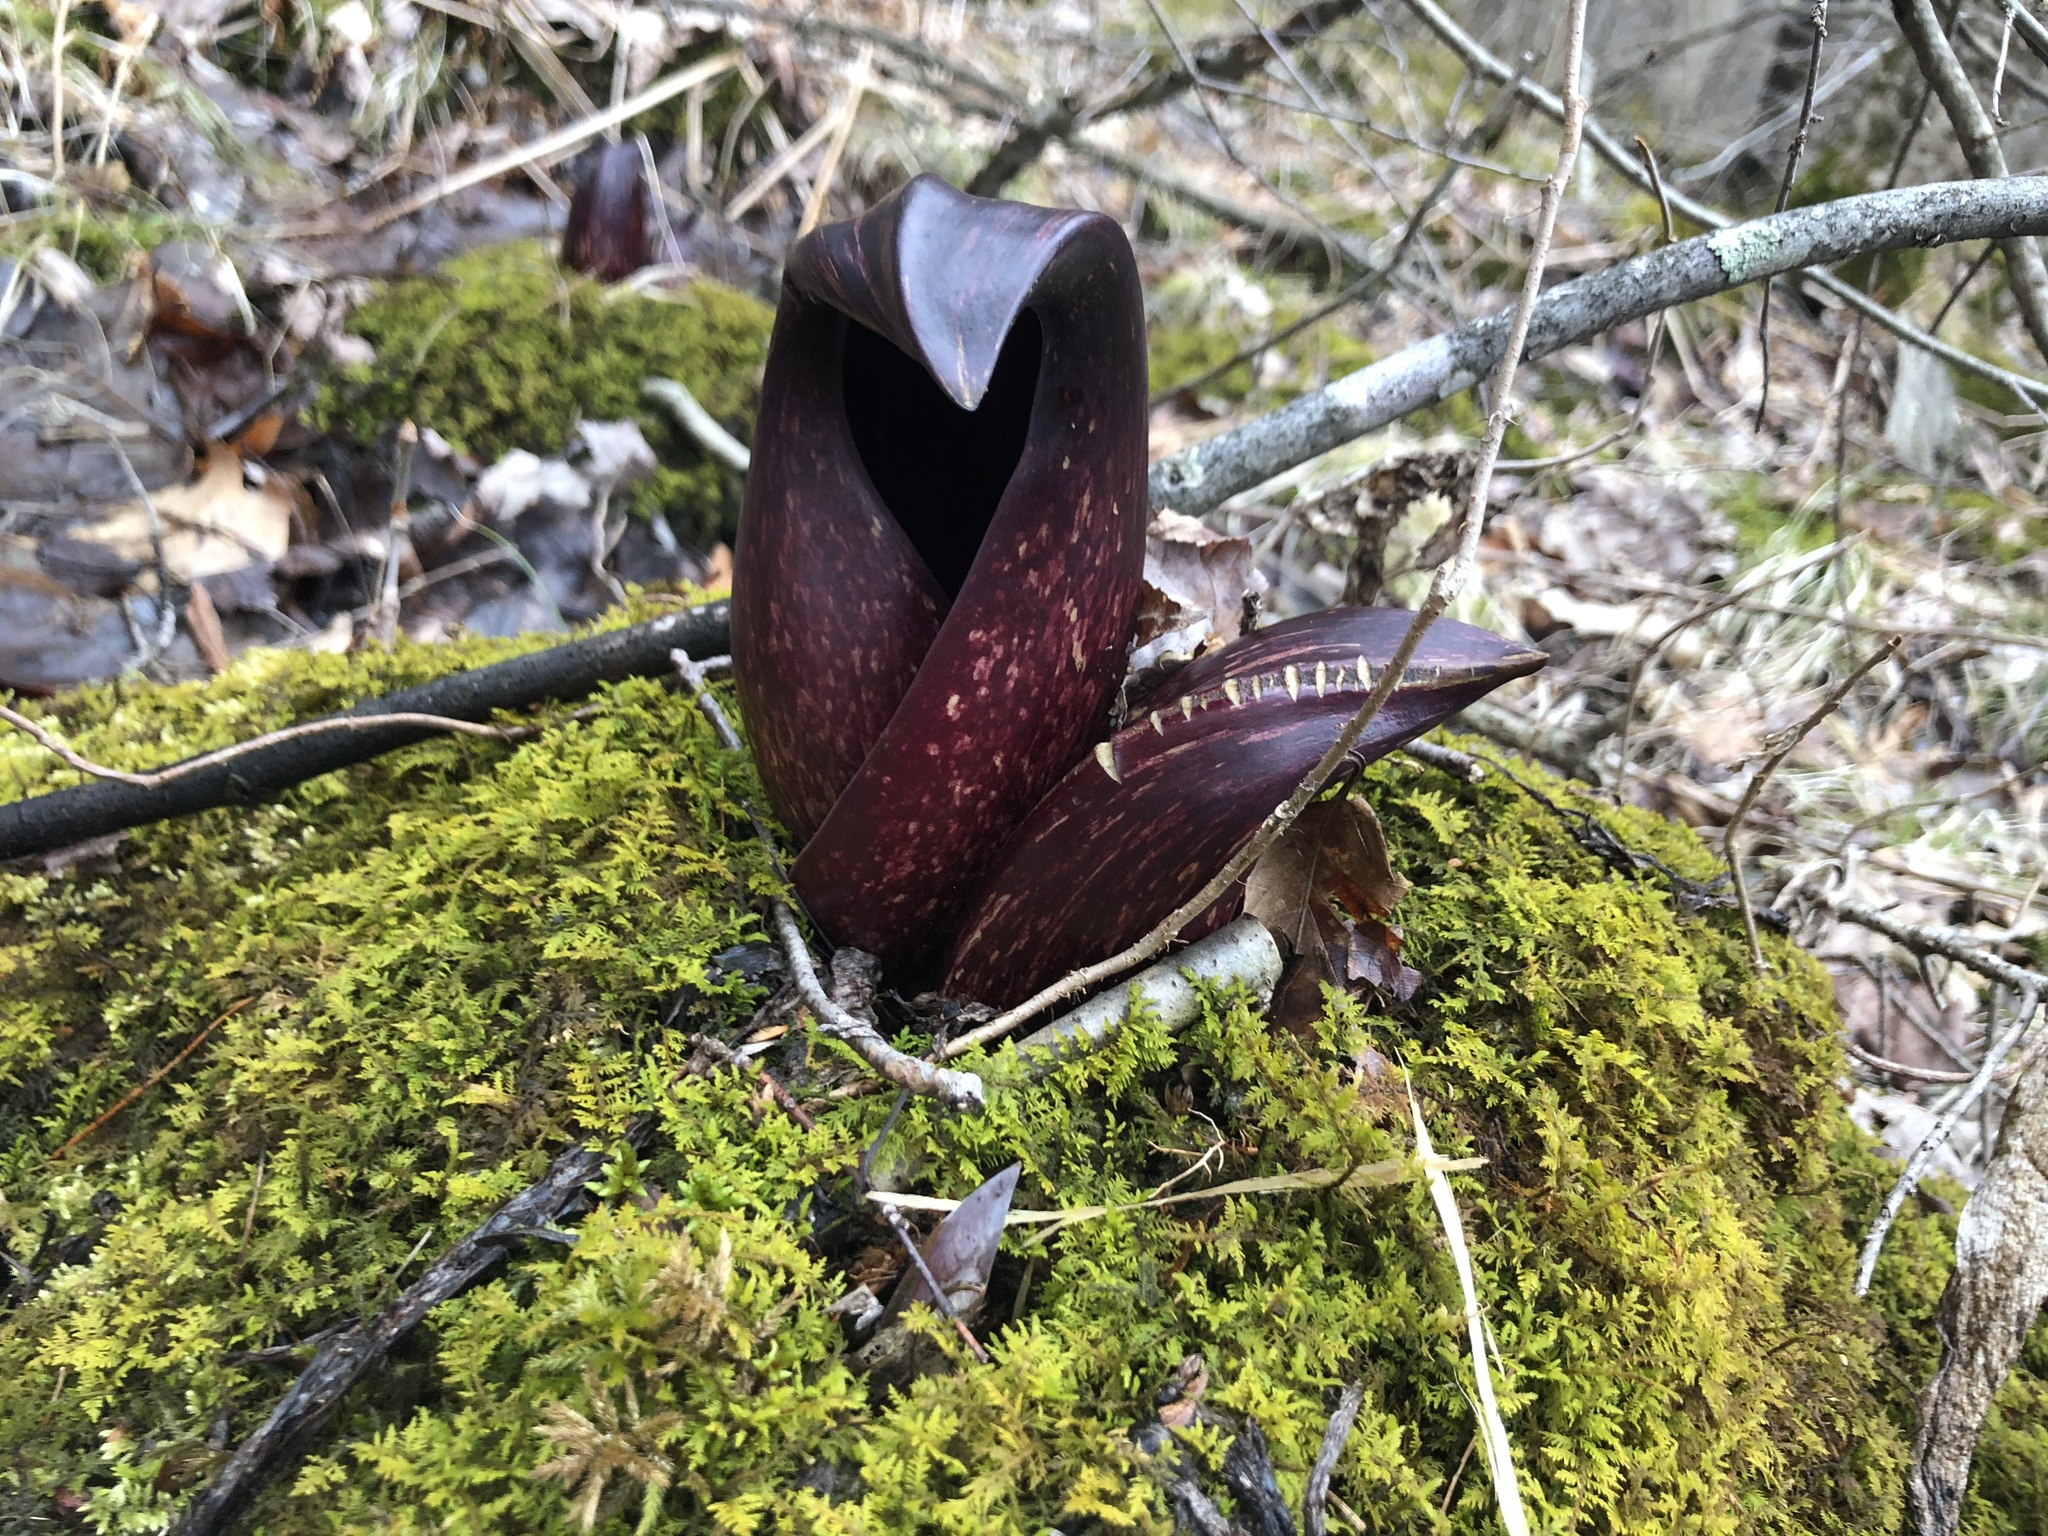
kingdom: Plantae
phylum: Tracheophyta
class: Liliopsida
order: Alismatales
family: Araceae
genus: Symplocarpus
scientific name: Symplocarpus foetidus
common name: Eastern skunk cabbage
